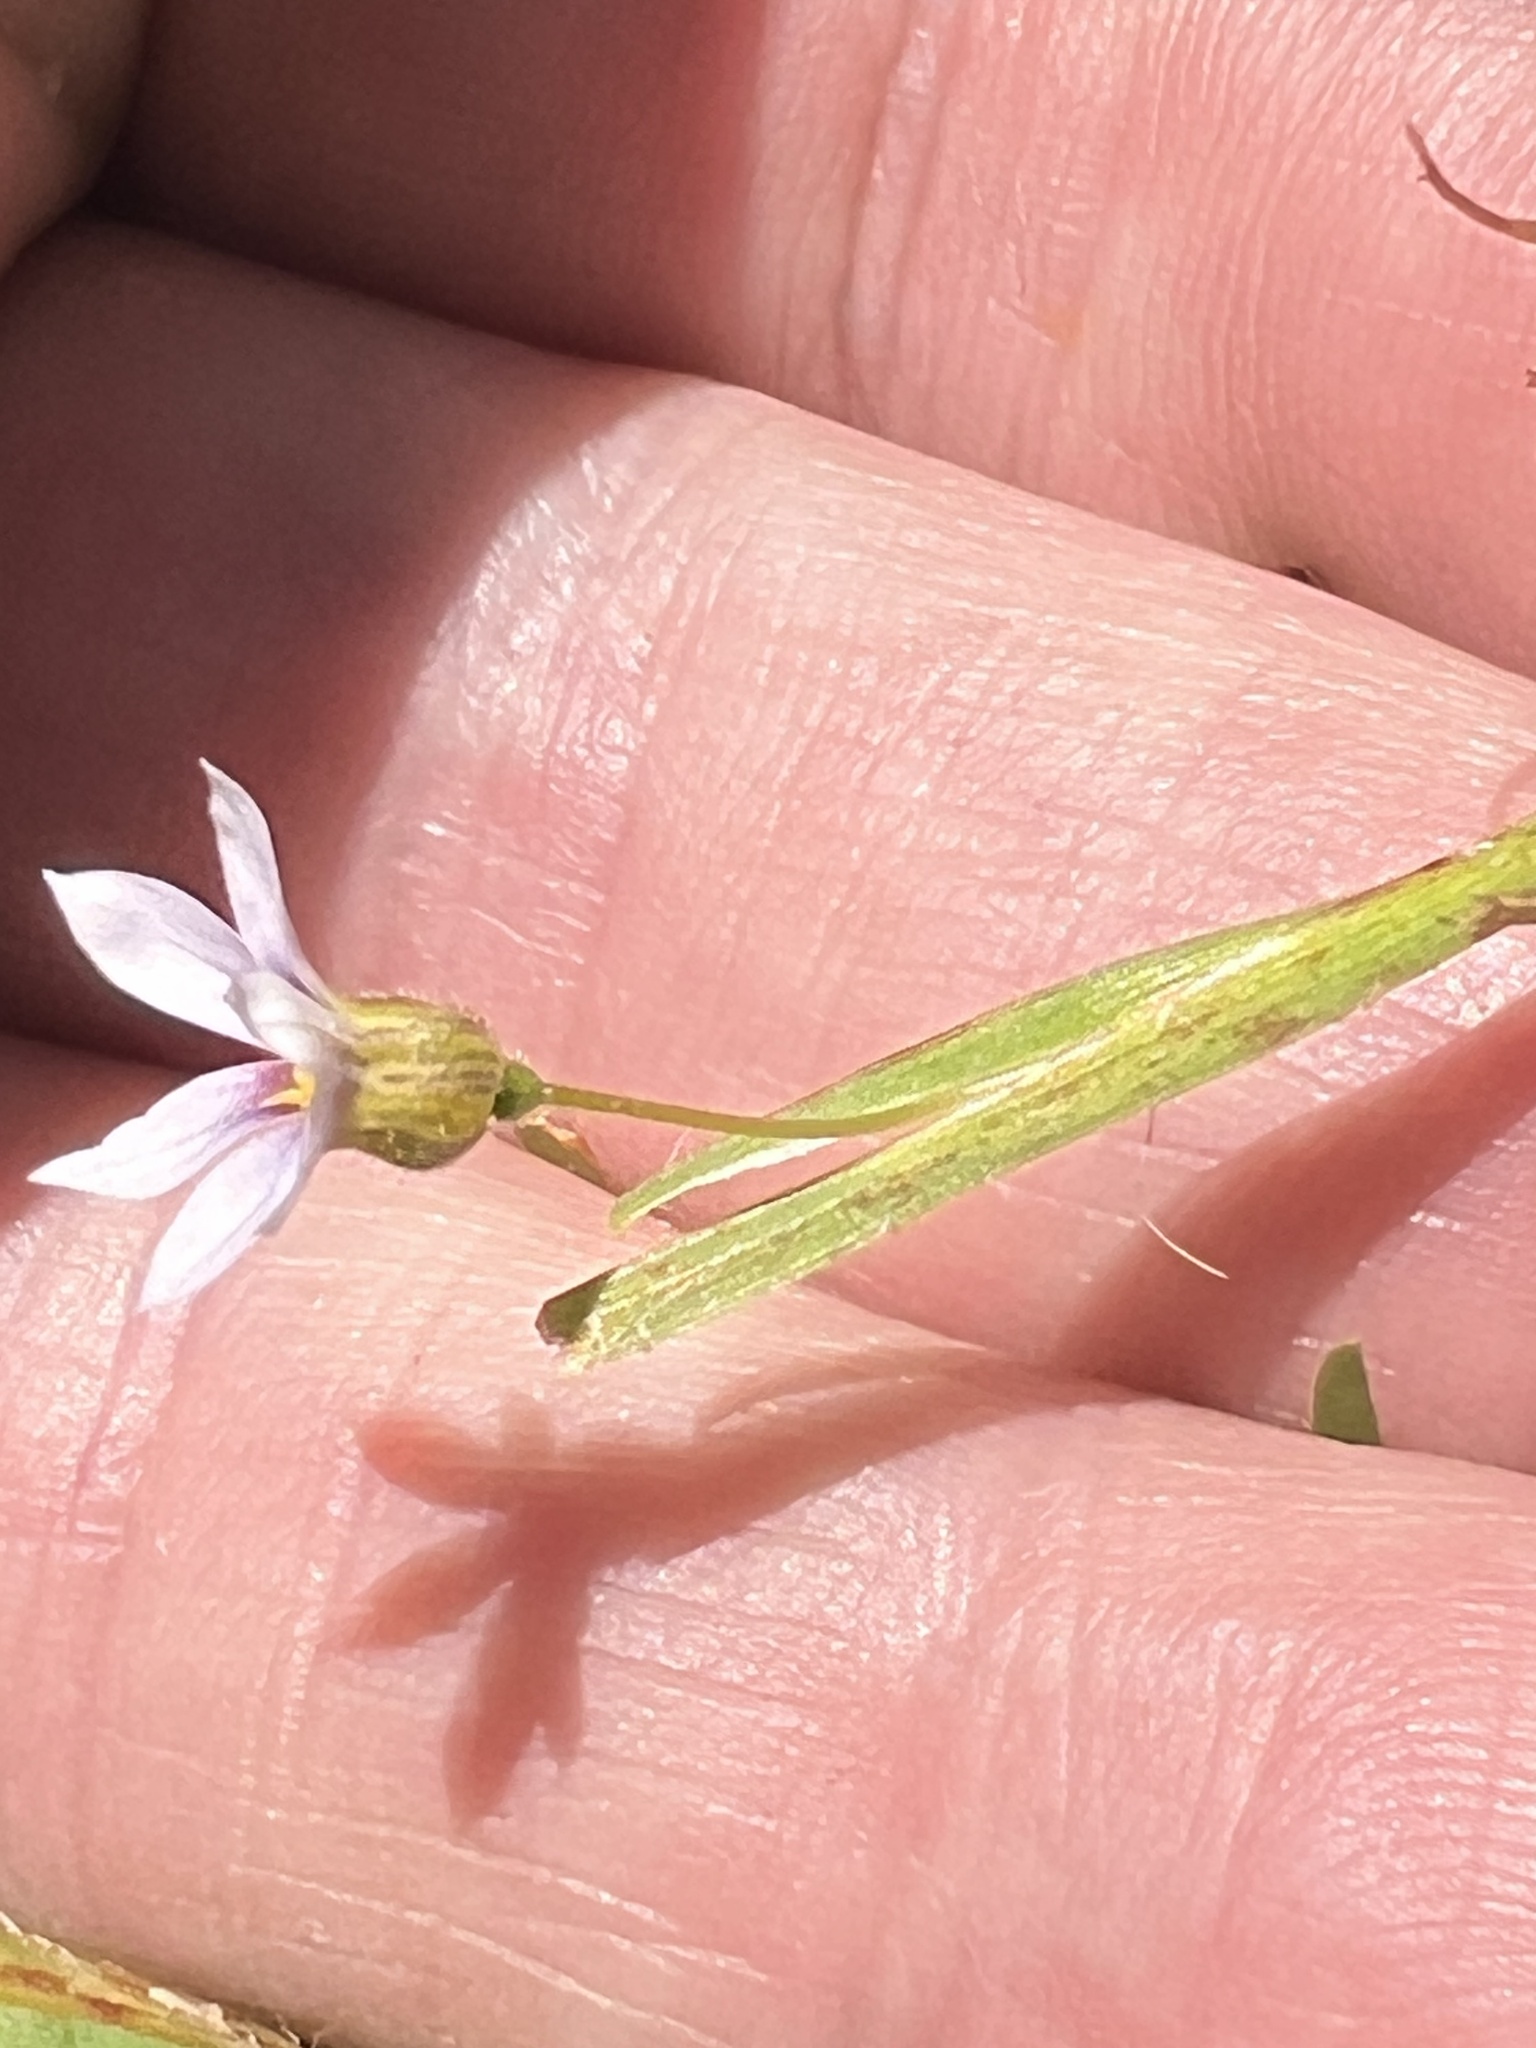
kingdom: Plantae
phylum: Tracheophyta
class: Liliopsida
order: Asparagales
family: Iridaceae
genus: Sisyrinchium
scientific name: Sisyrinchium micranthum
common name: Bermuda pigroot
